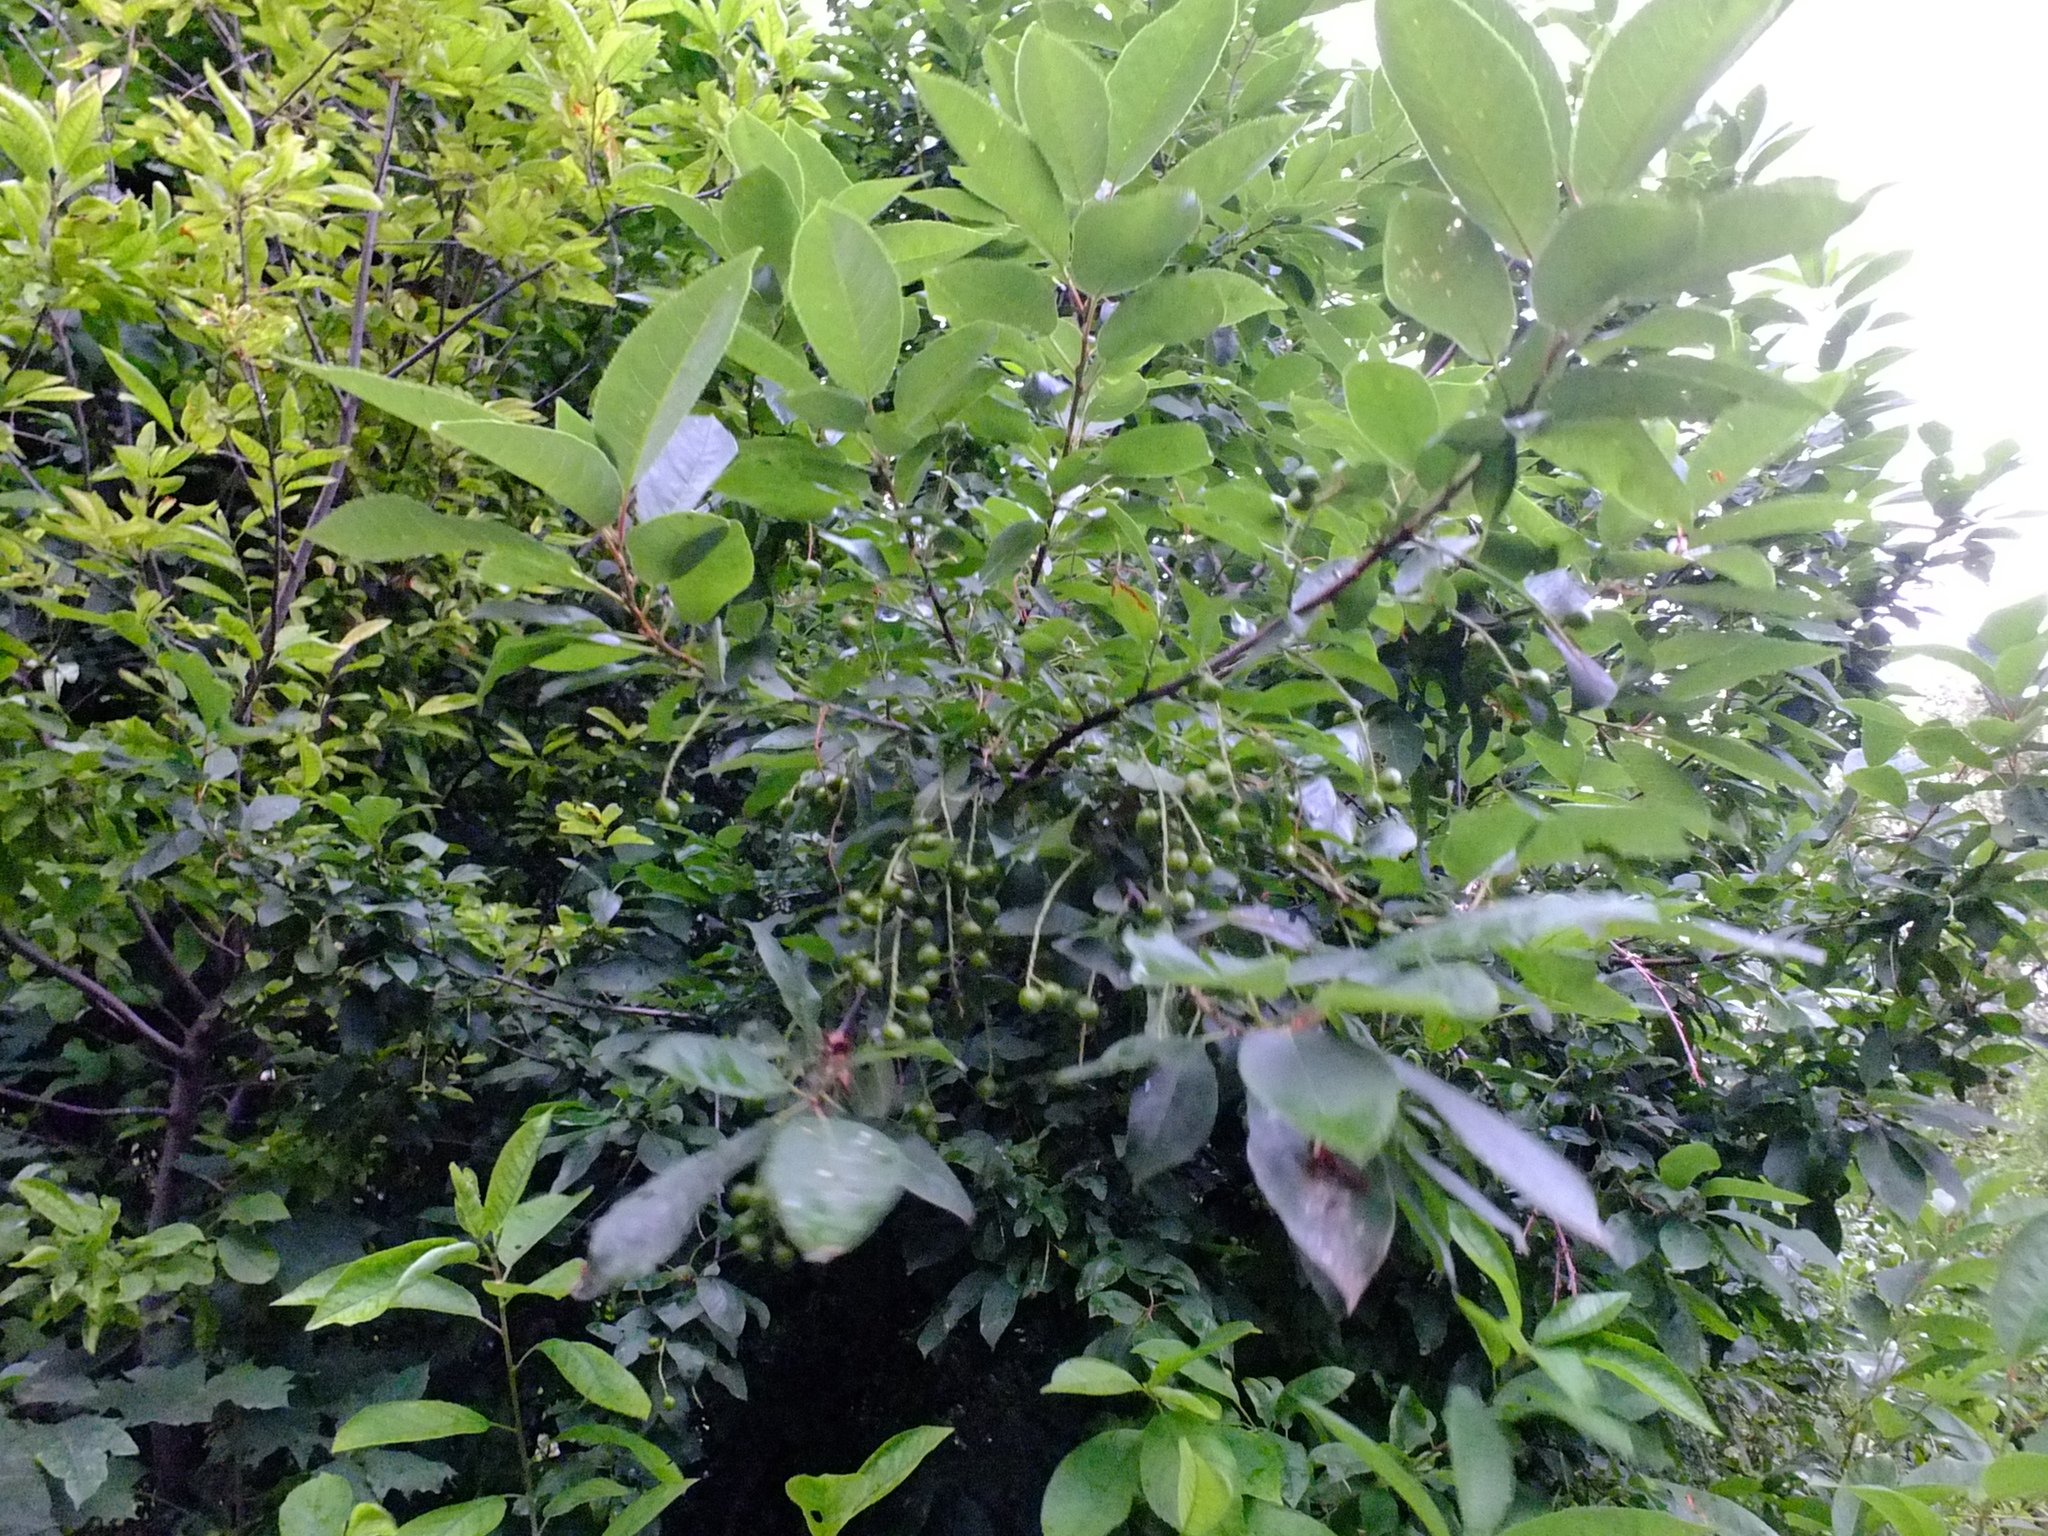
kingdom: Plantae
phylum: Tracheophyta
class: Magnoliopsida
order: Rosales
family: Rosaceae
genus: Prunus
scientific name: Prunus padus
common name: Bird cherry
